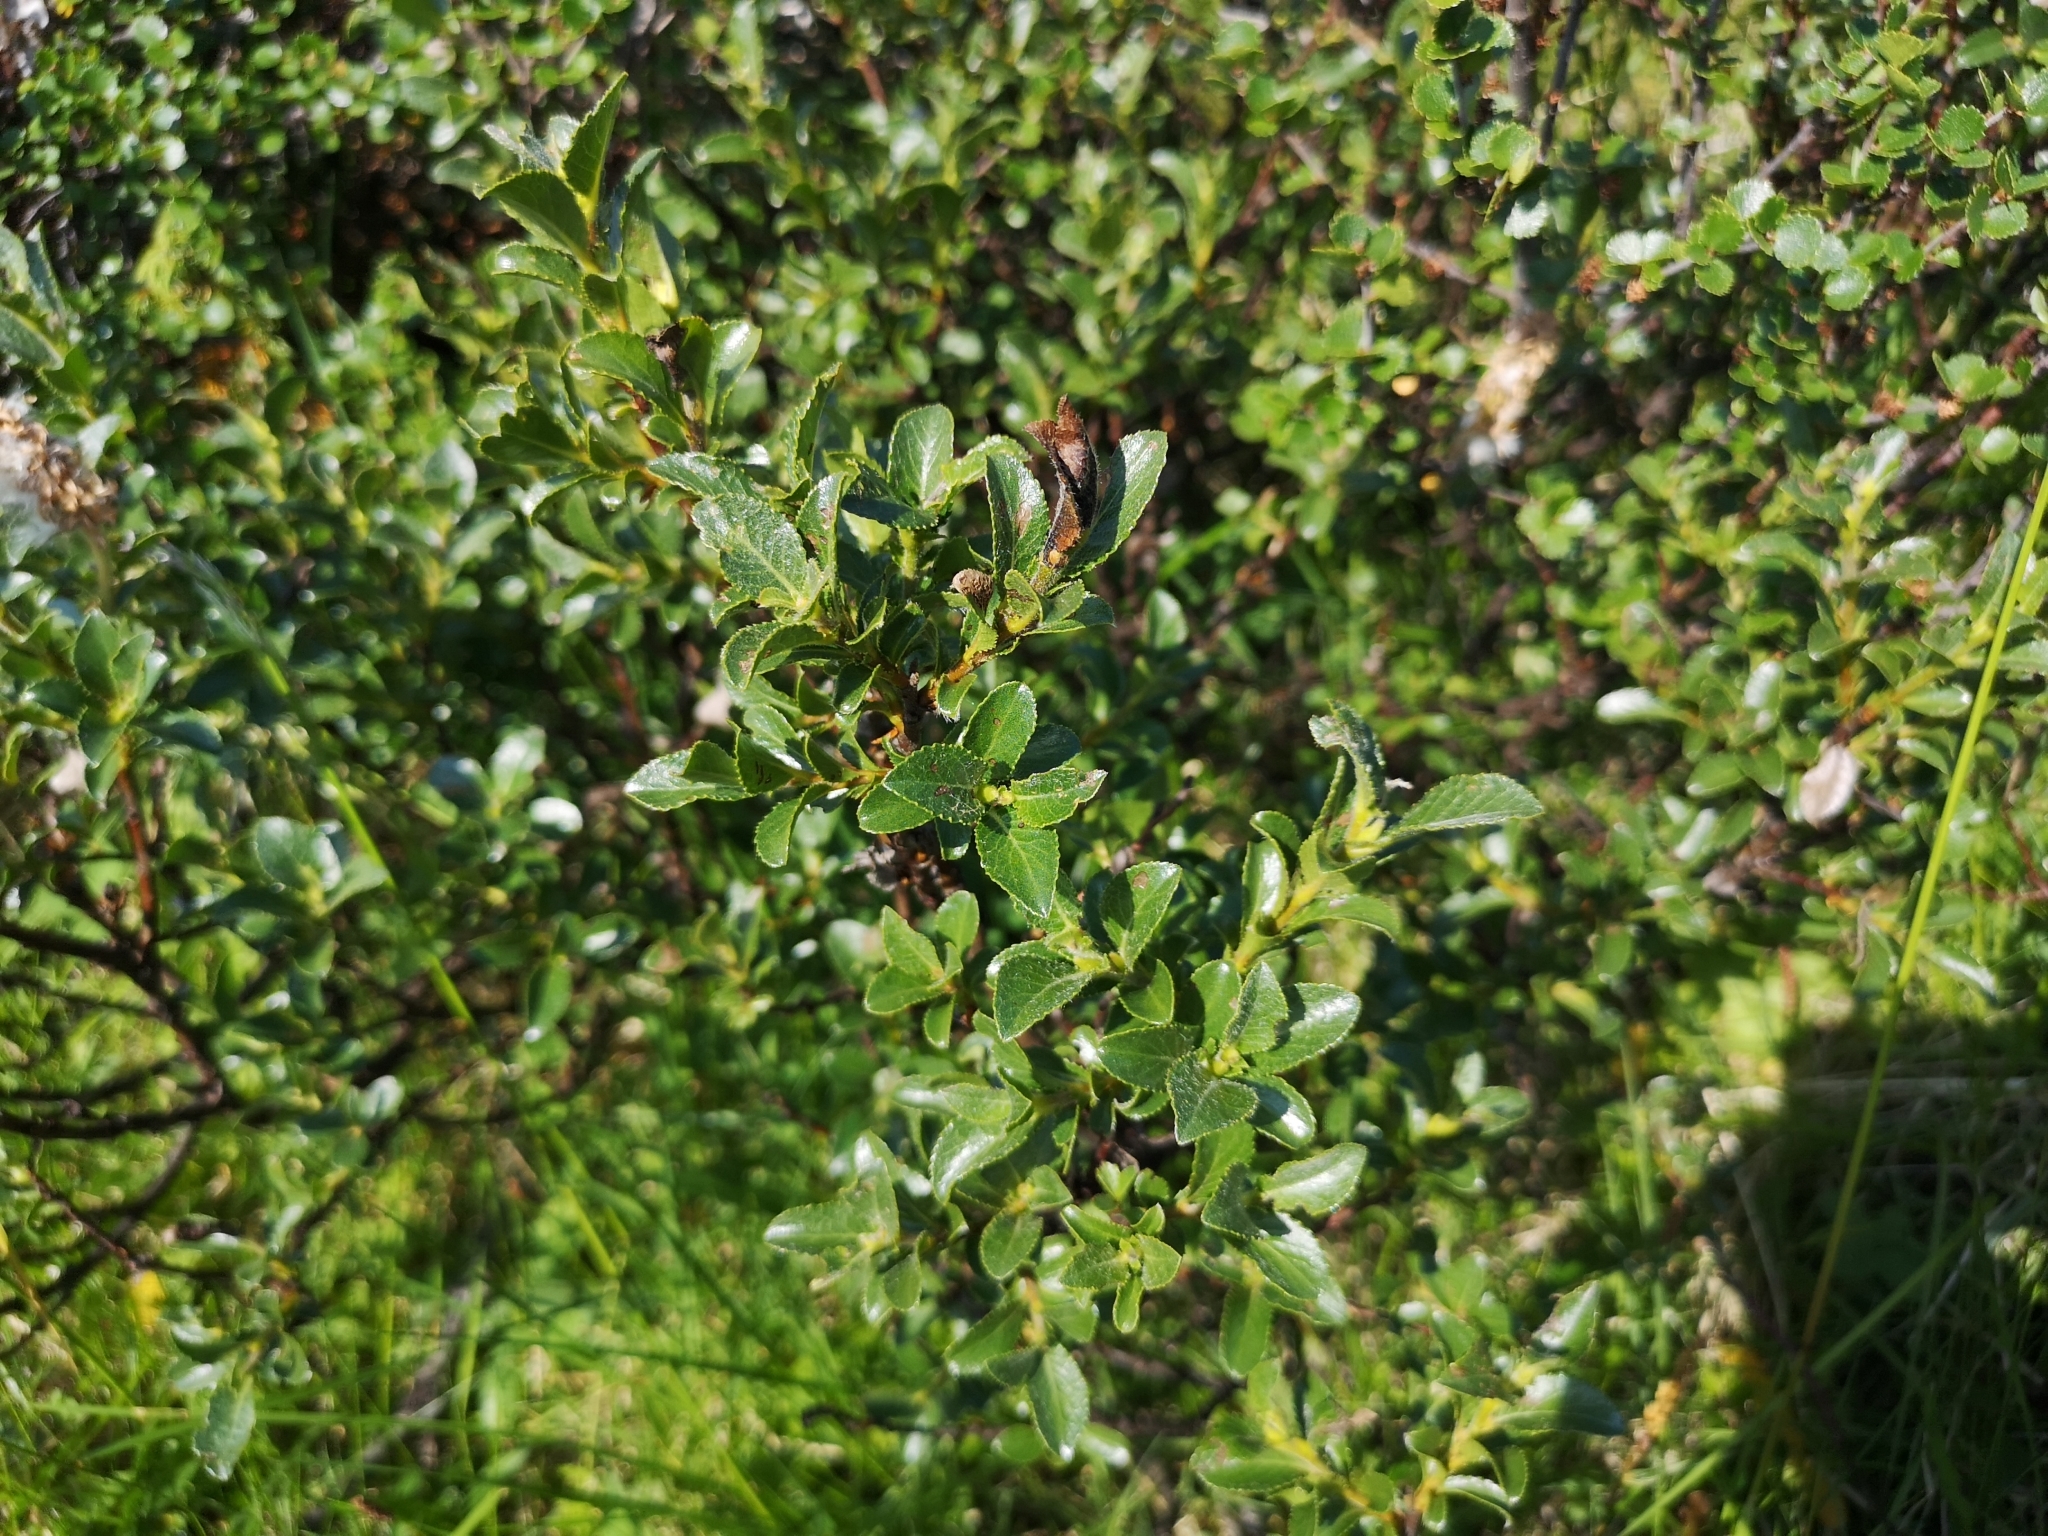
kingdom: Plantae
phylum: Tracheophyta
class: Magnoliopsida
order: Malpighiales
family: Salicaceae
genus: Salix
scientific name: Salix myrsinites
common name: Myrtle willow
